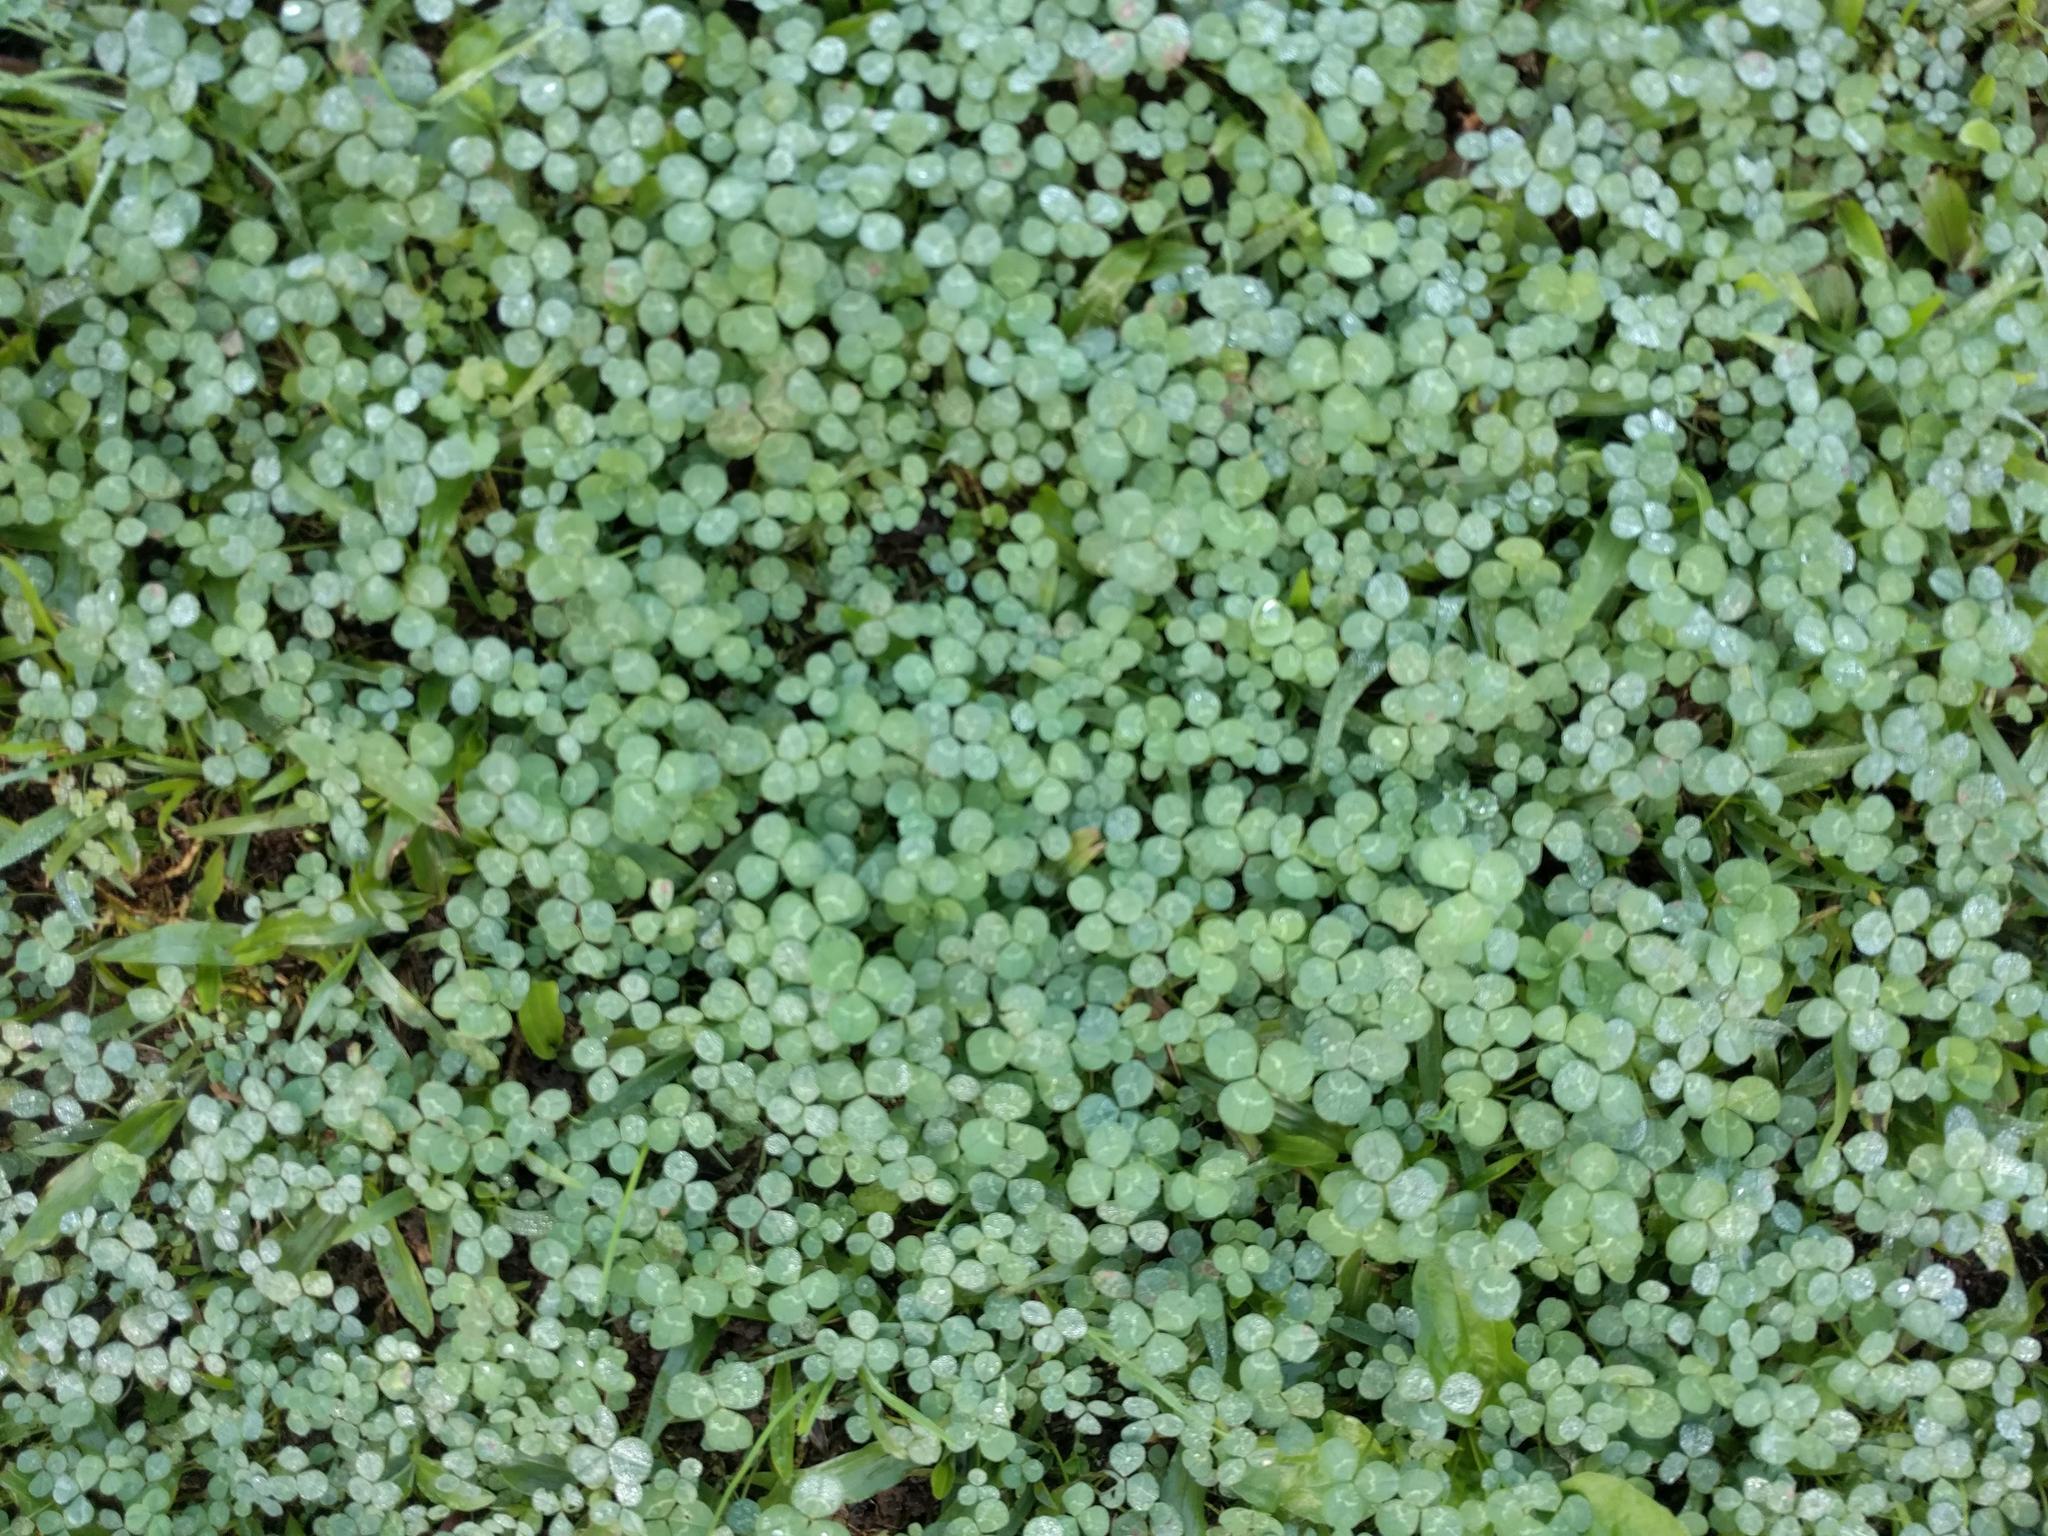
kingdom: Plantae
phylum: Tracheophyta
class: Magnoliopsida
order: Fabales
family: Fabaceae
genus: Trifolium
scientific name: Trifolium repens
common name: White clover
